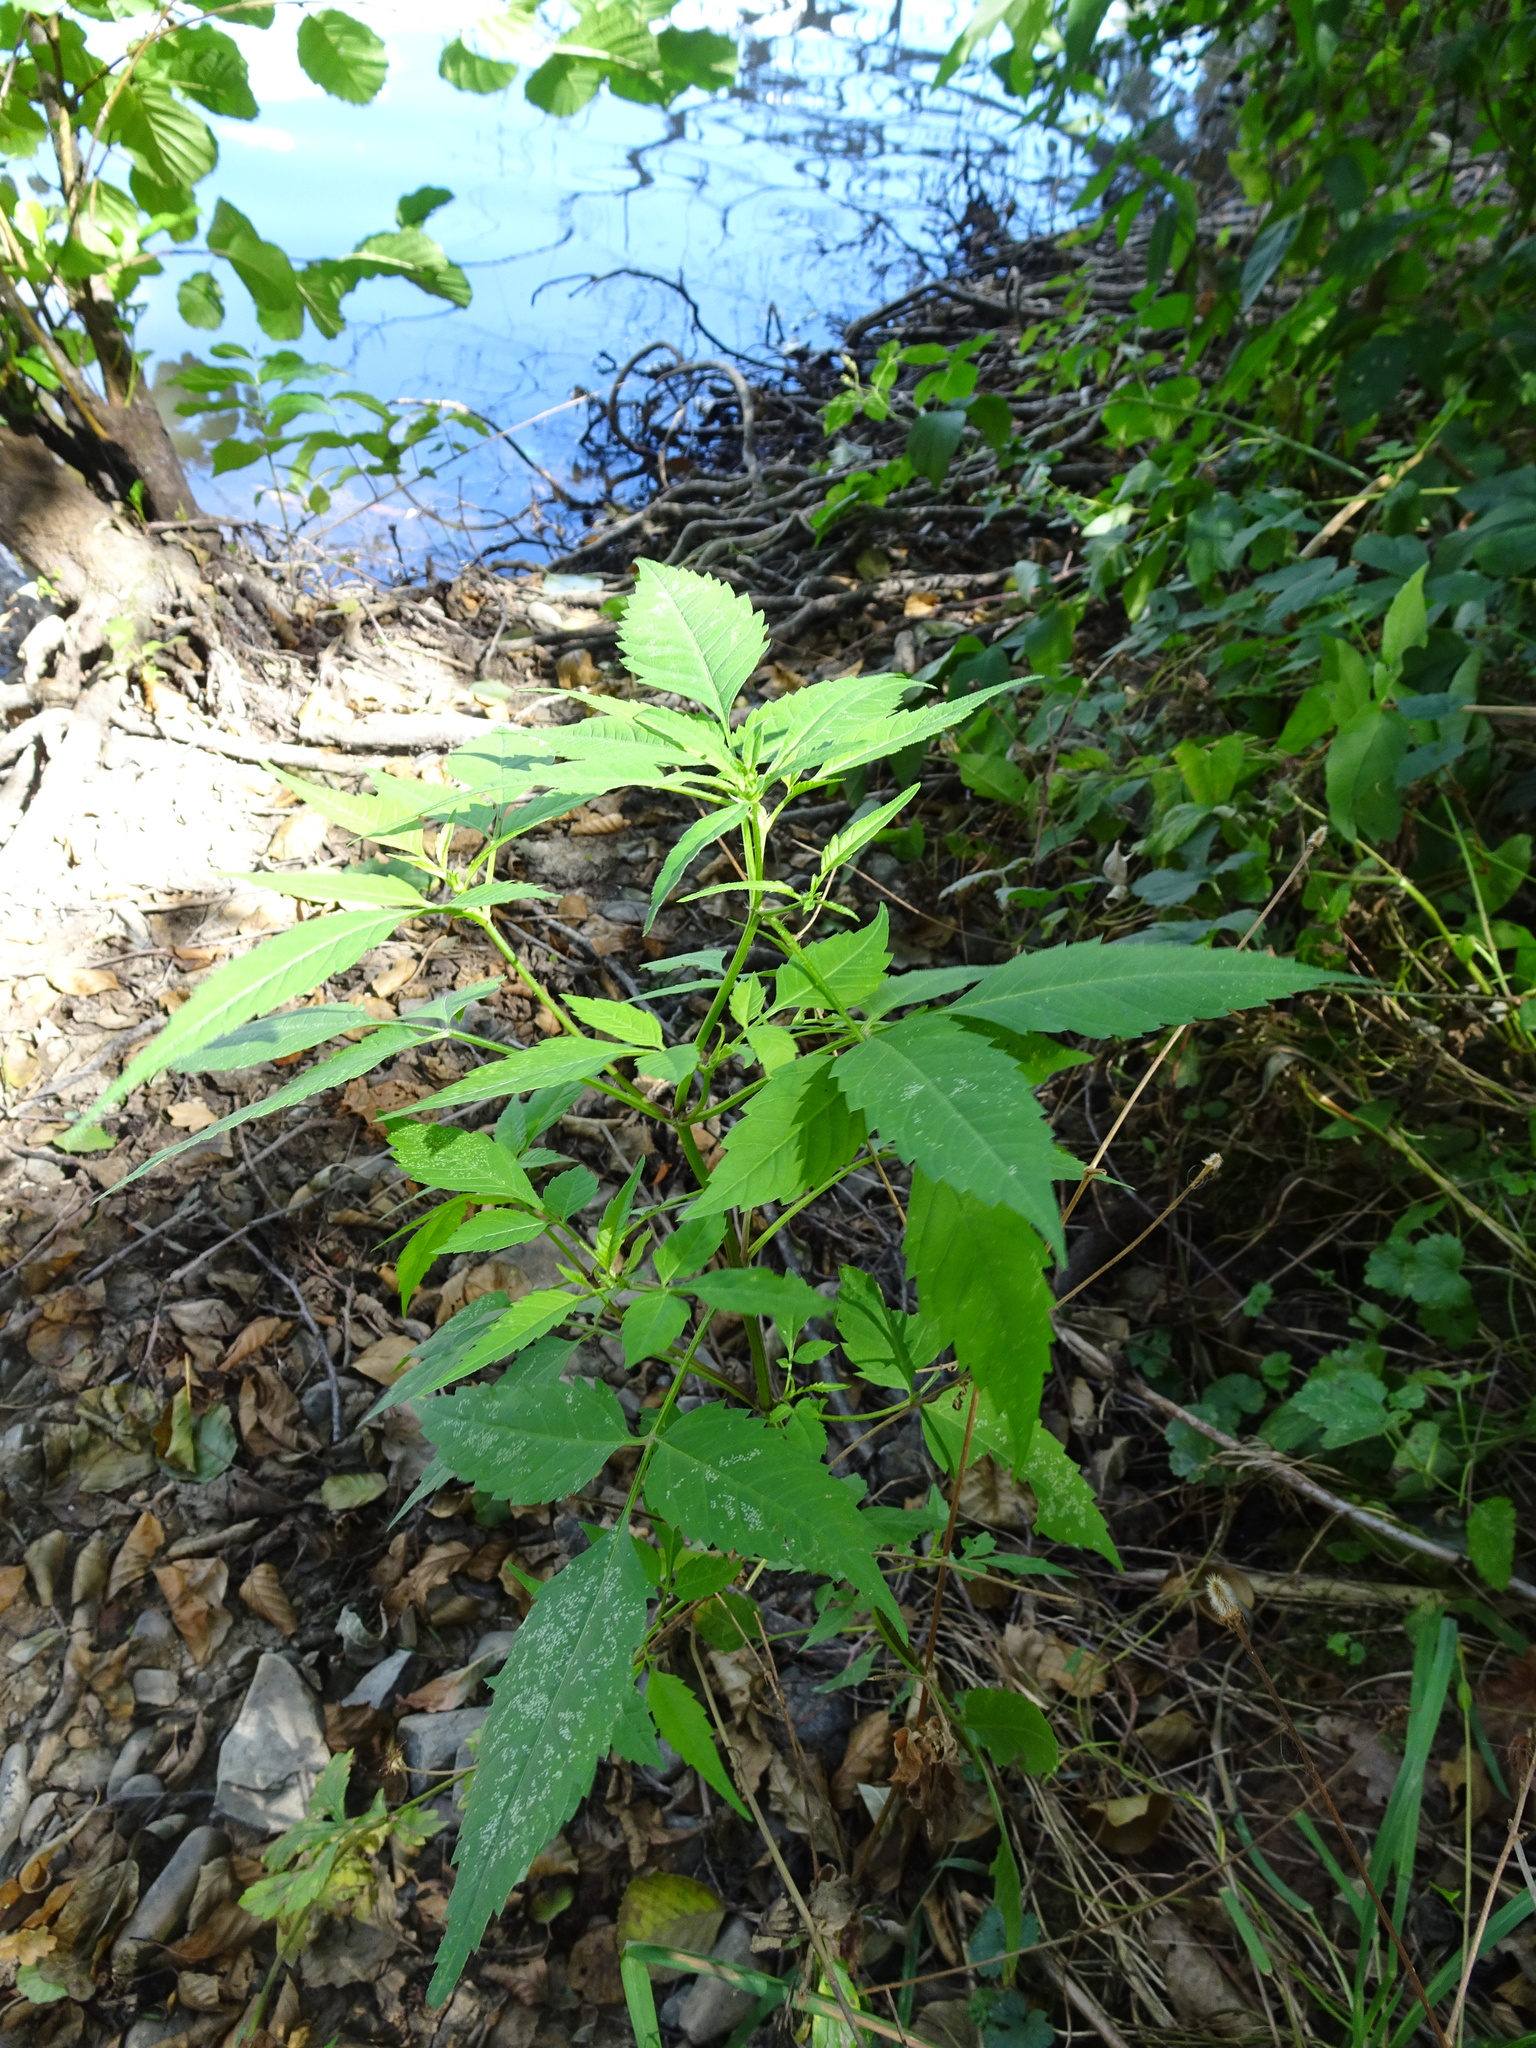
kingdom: Plantae
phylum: Tracheophyta
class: Magnoliopsida
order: Asterales
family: Asteraceae
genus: Bidens
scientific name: Bidens frondosa
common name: Beggarticks
